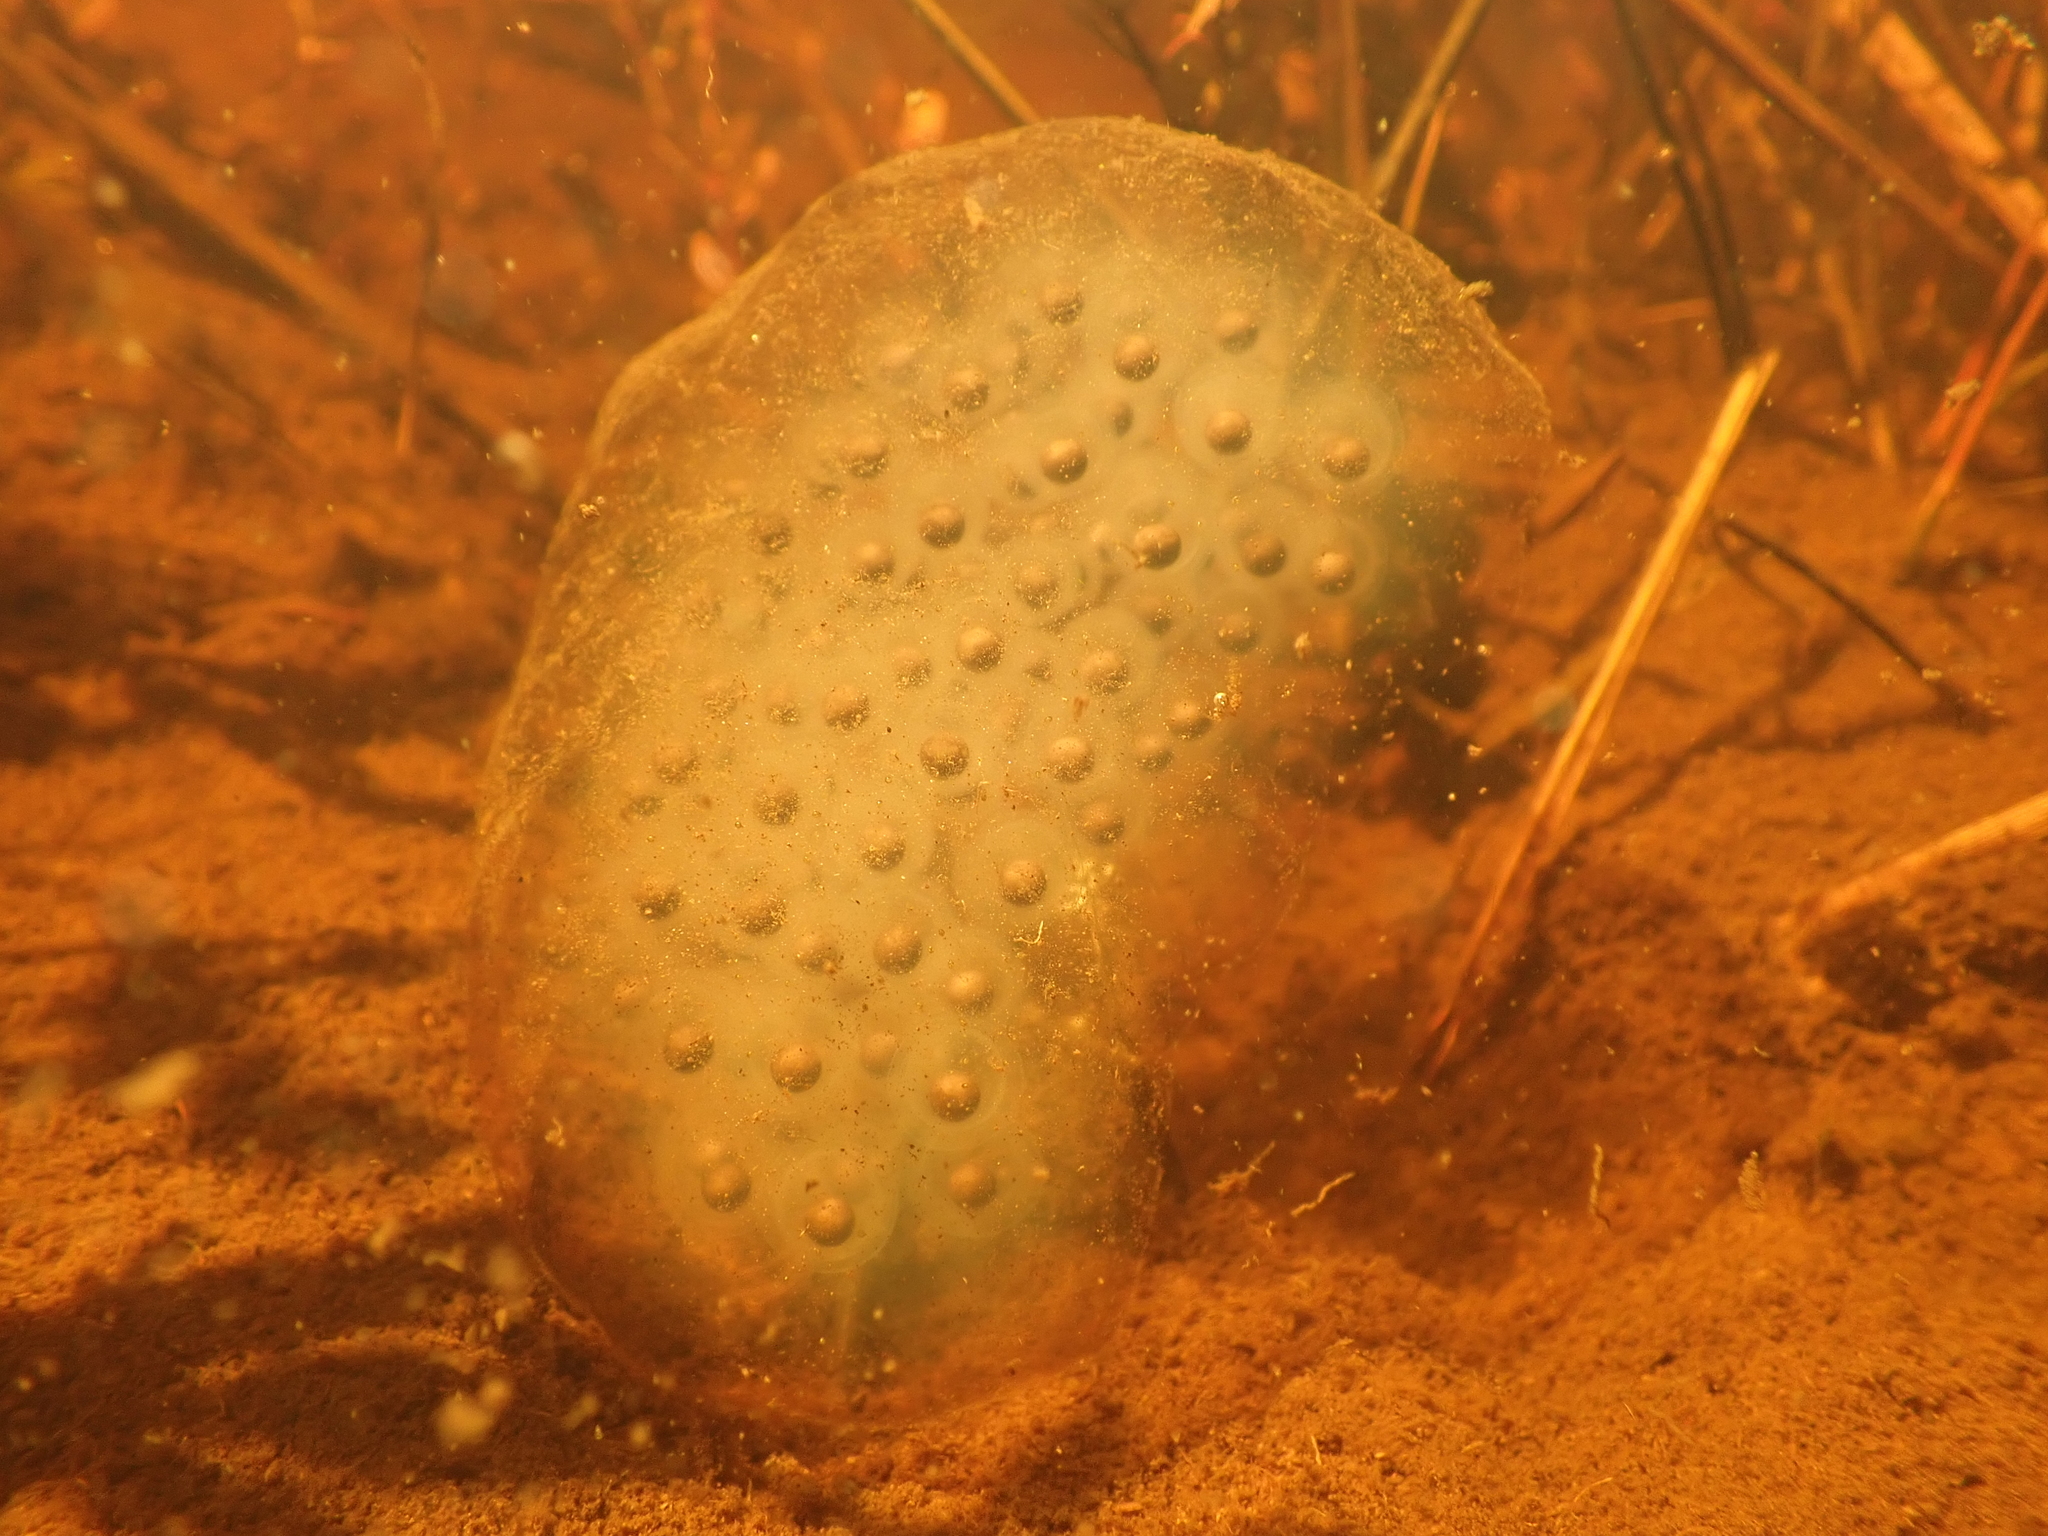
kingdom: Animalia
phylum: Chordata
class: Amphibia
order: Caudata
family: Ambystomatidae
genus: Ambystoma
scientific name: Ambystoma maculatum
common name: Spotted salamander
